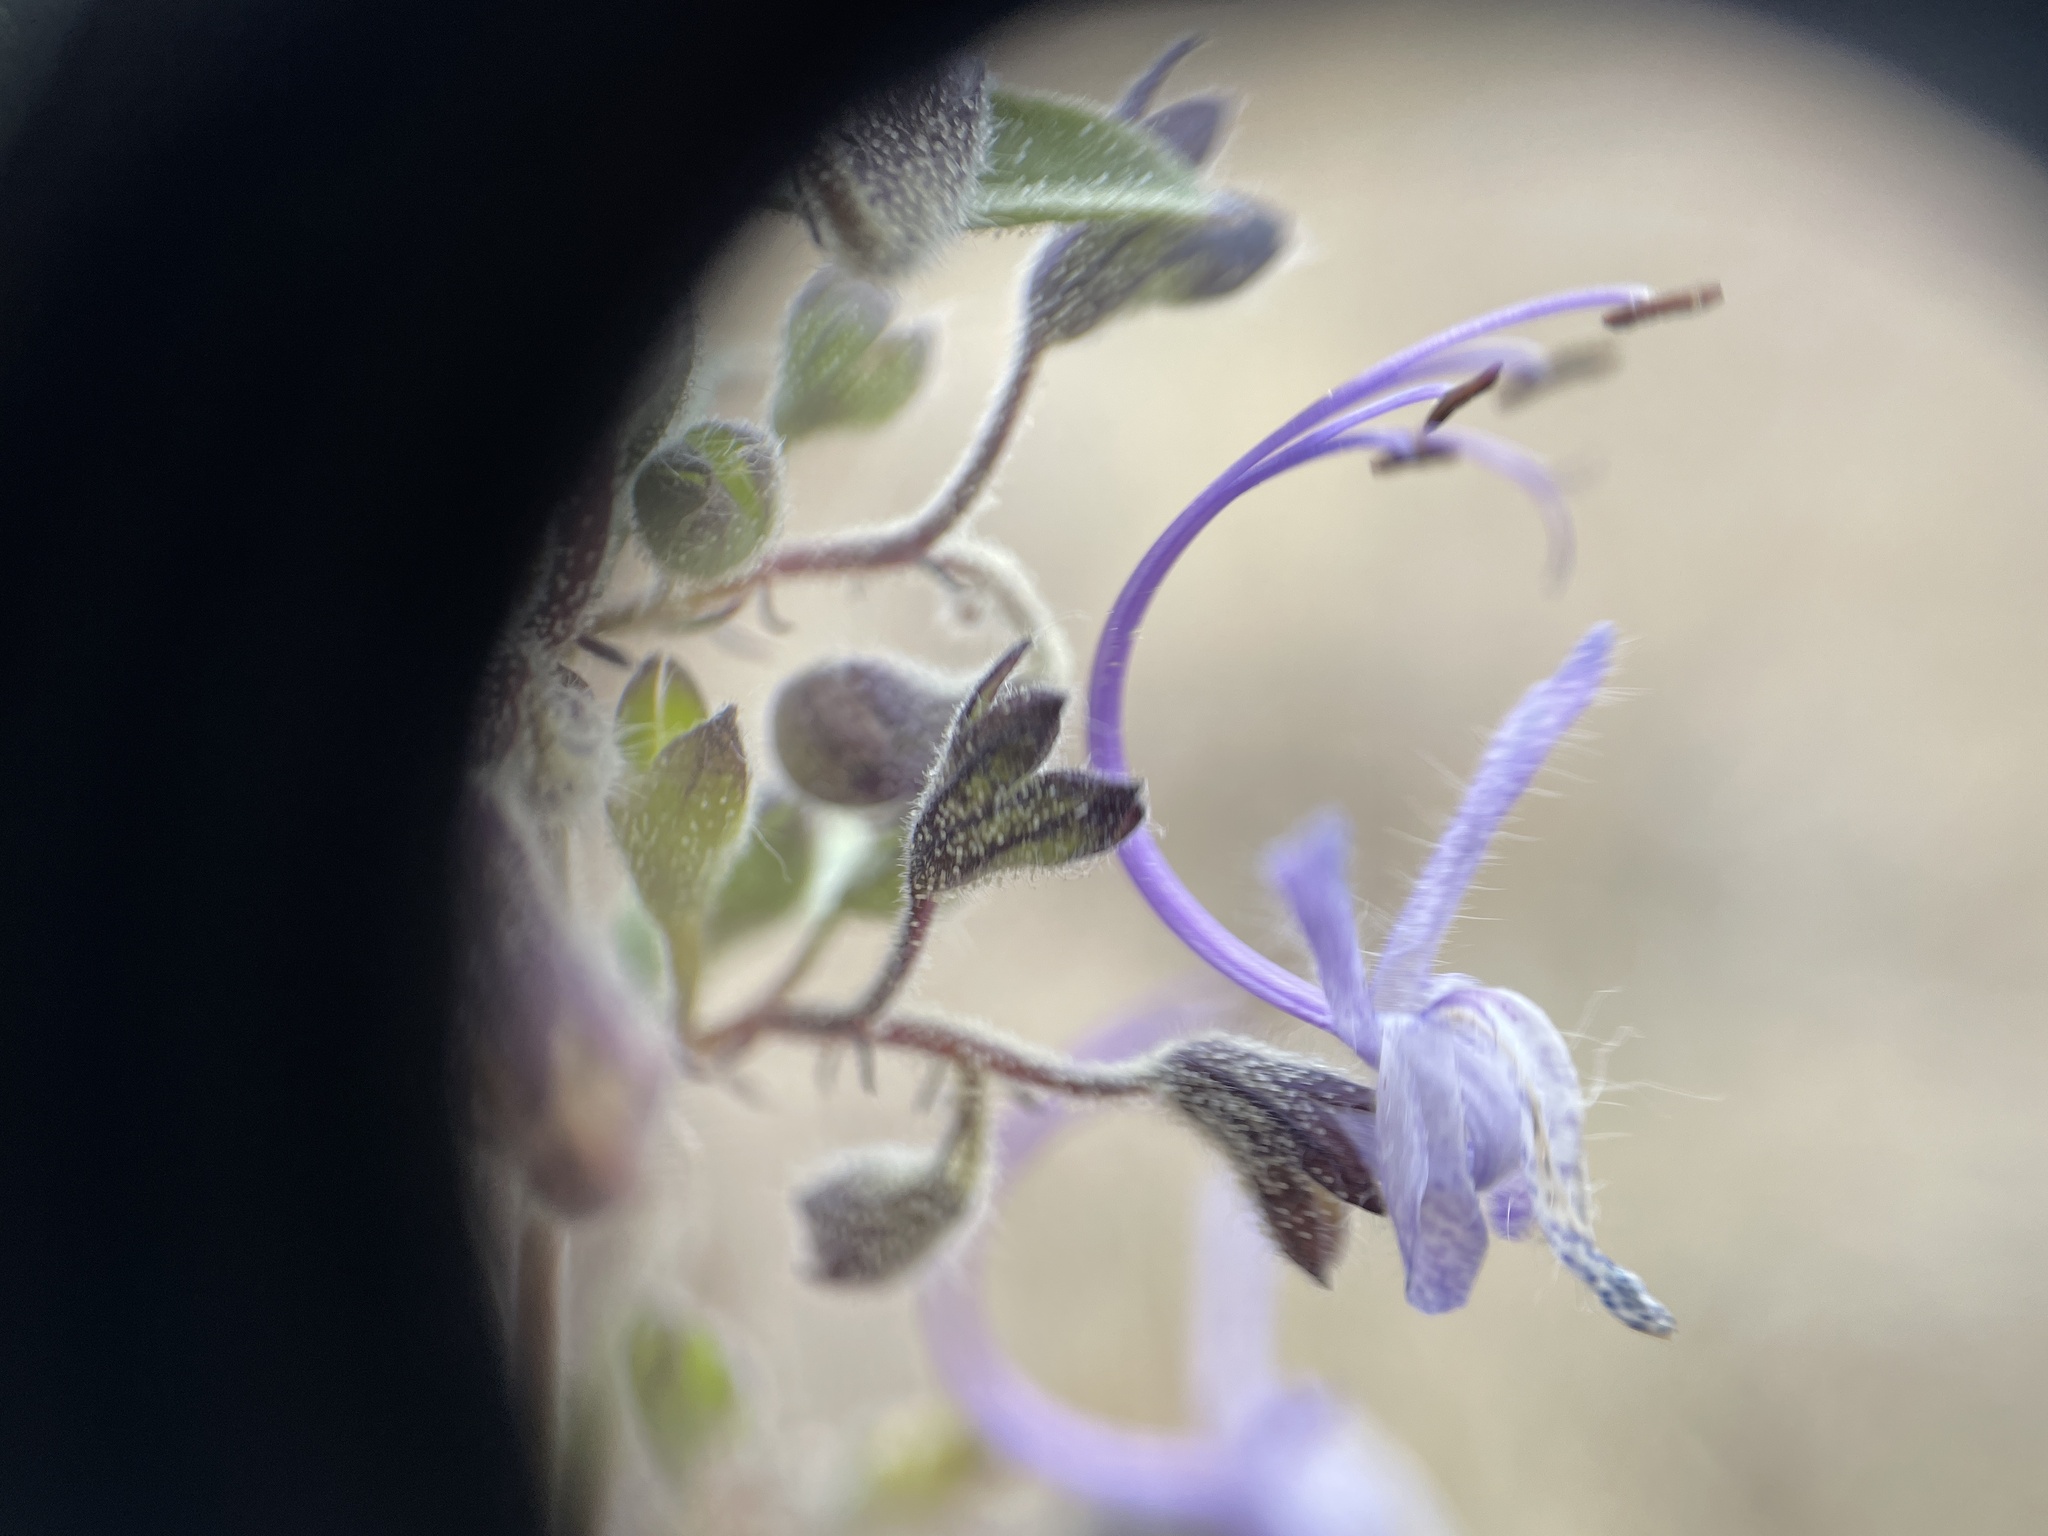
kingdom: Plantae
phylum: Tracheophyta
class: Magnoliopsida
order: Lamiales
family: Lamiaceae
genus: Trichostema
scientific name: Trichostema lanceolatum
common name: Vinegar-weed
